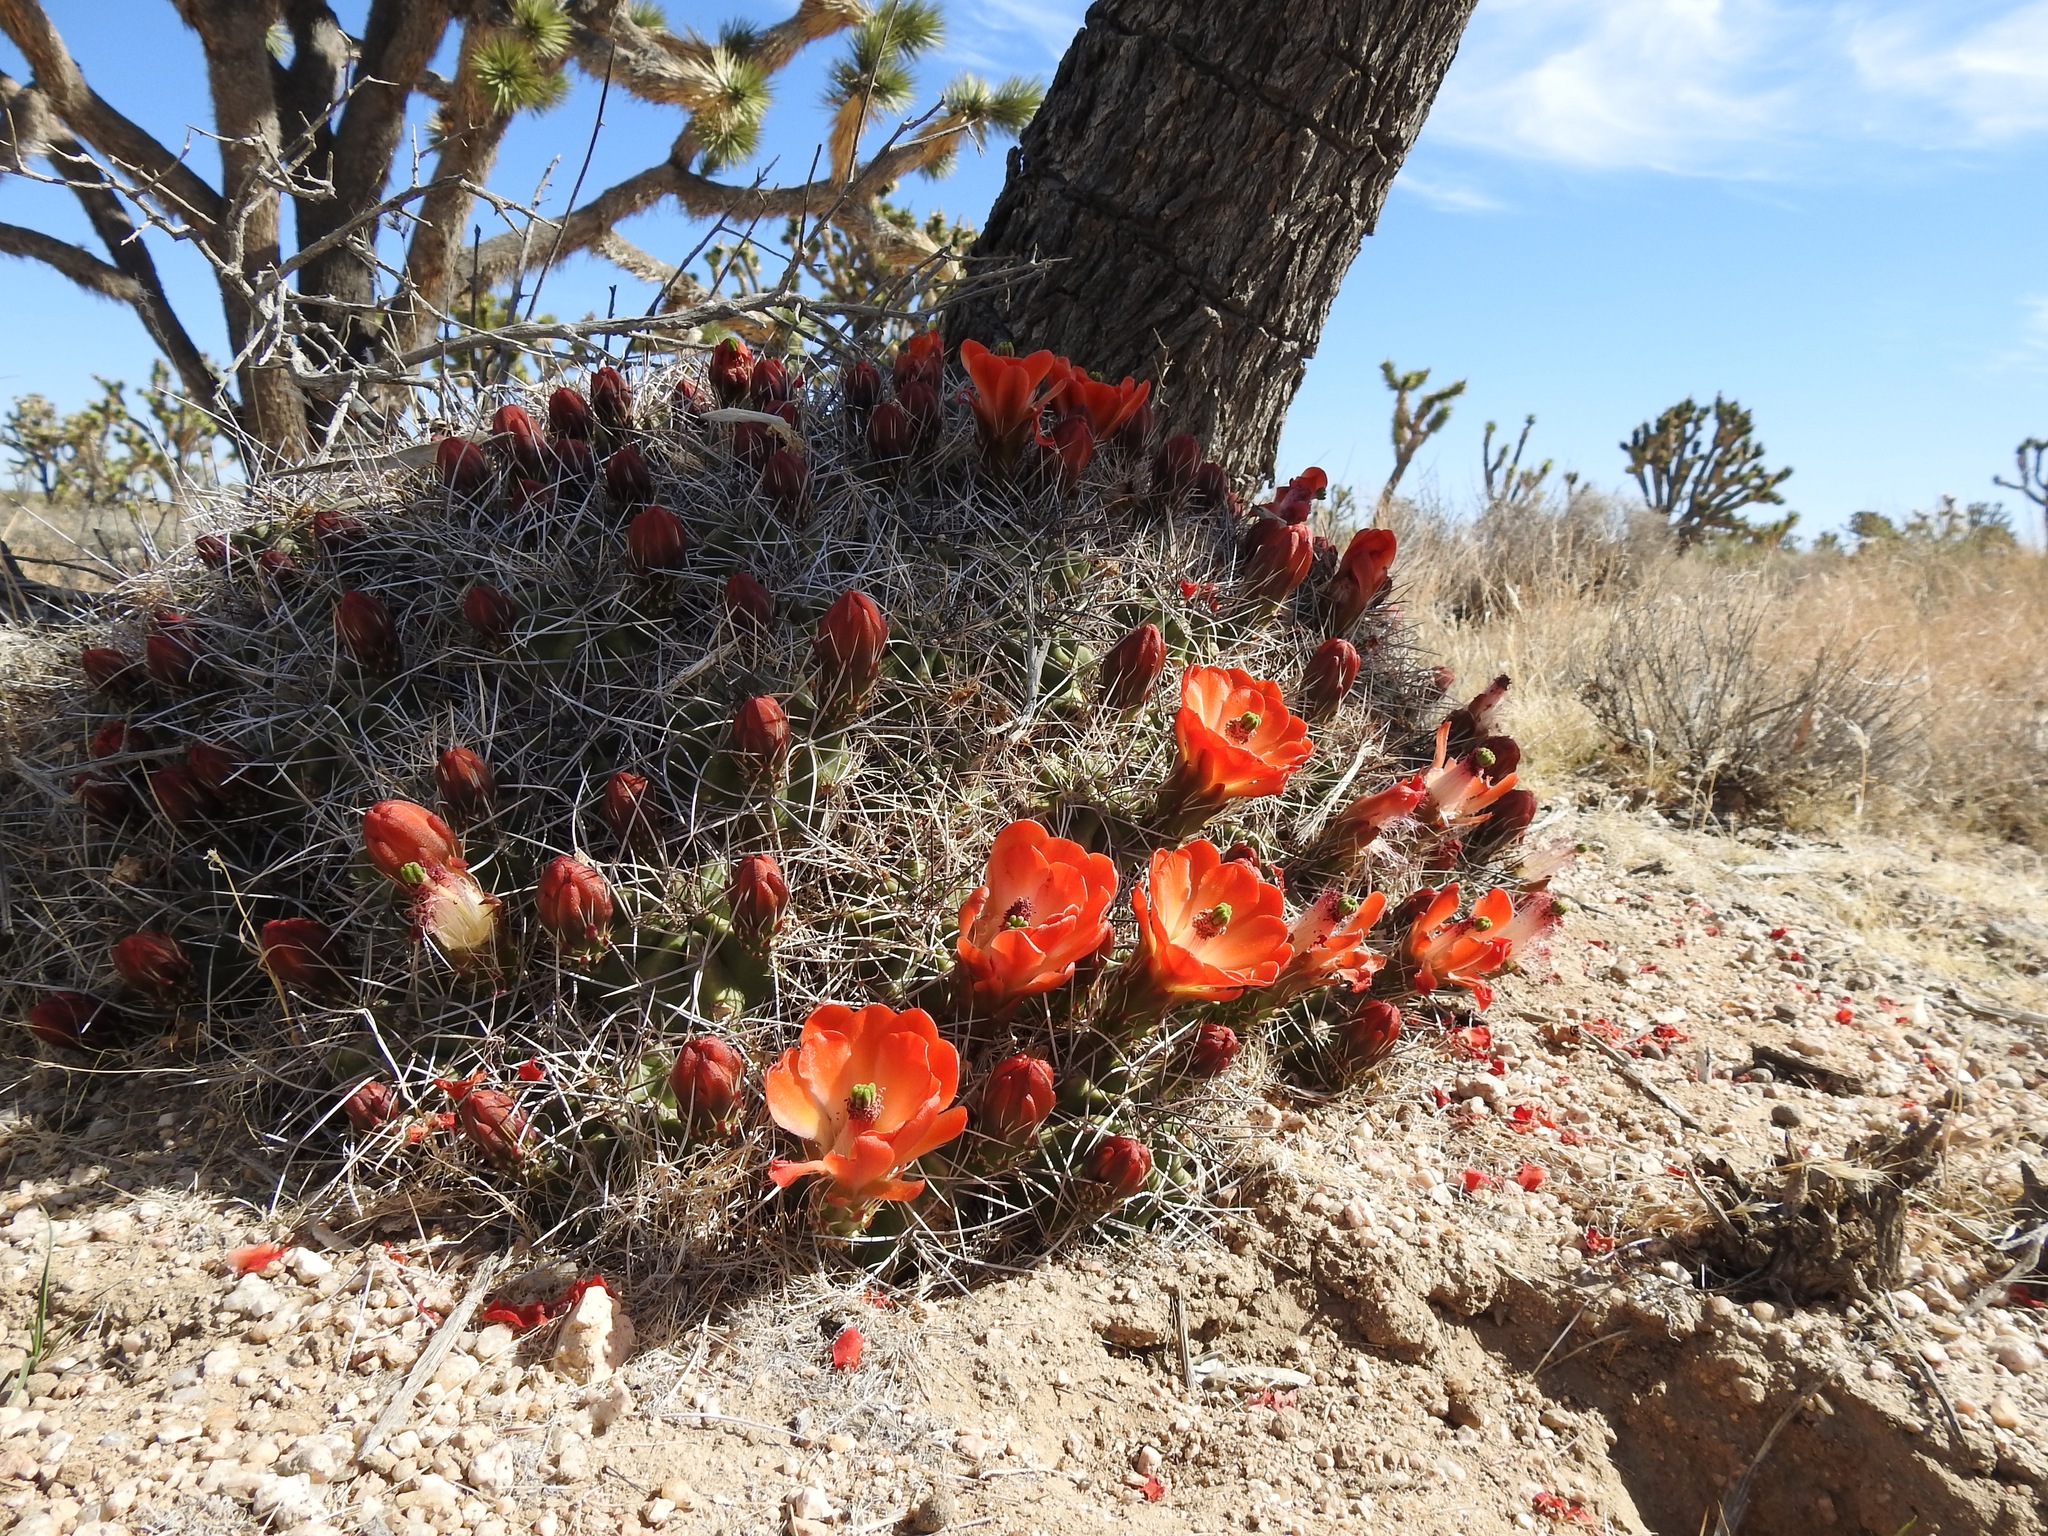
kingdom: Plantae
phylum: Tracheophyta
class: Magnoliopsida
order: Caryophyllales
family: Cactaceae
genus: Echinocereus
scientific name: Echinocereus triglochidiatus
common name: Claretcup hedgehog
